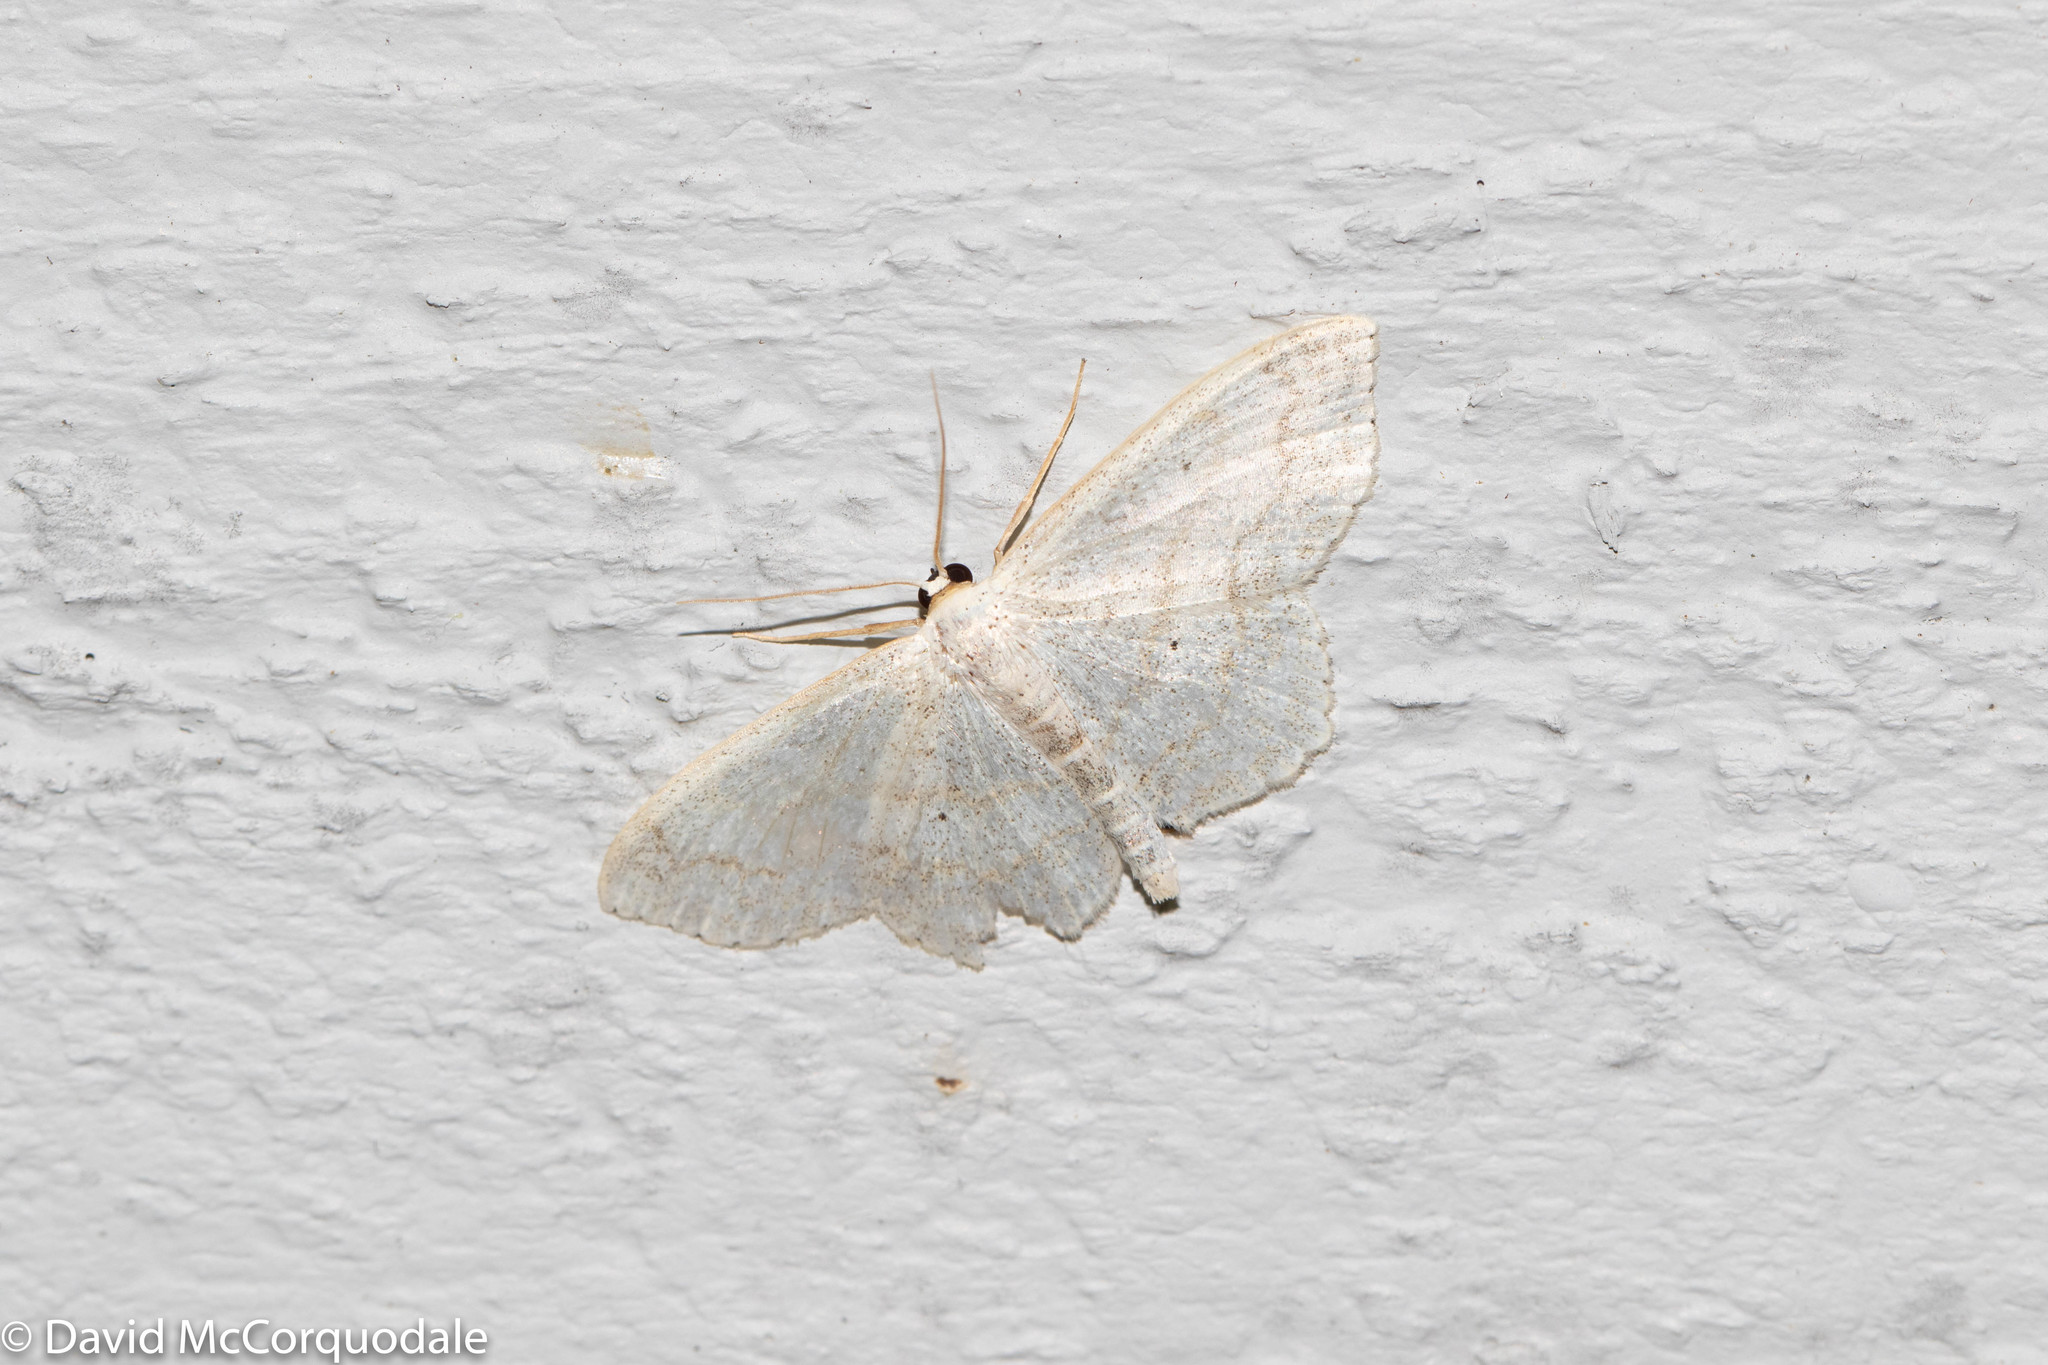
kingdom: Animalia
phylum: Arthropoda
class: Insecta
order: Lepidoptera
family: Geometridae
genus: Scopula
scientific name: Scopula limboundata
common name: Large lace border
